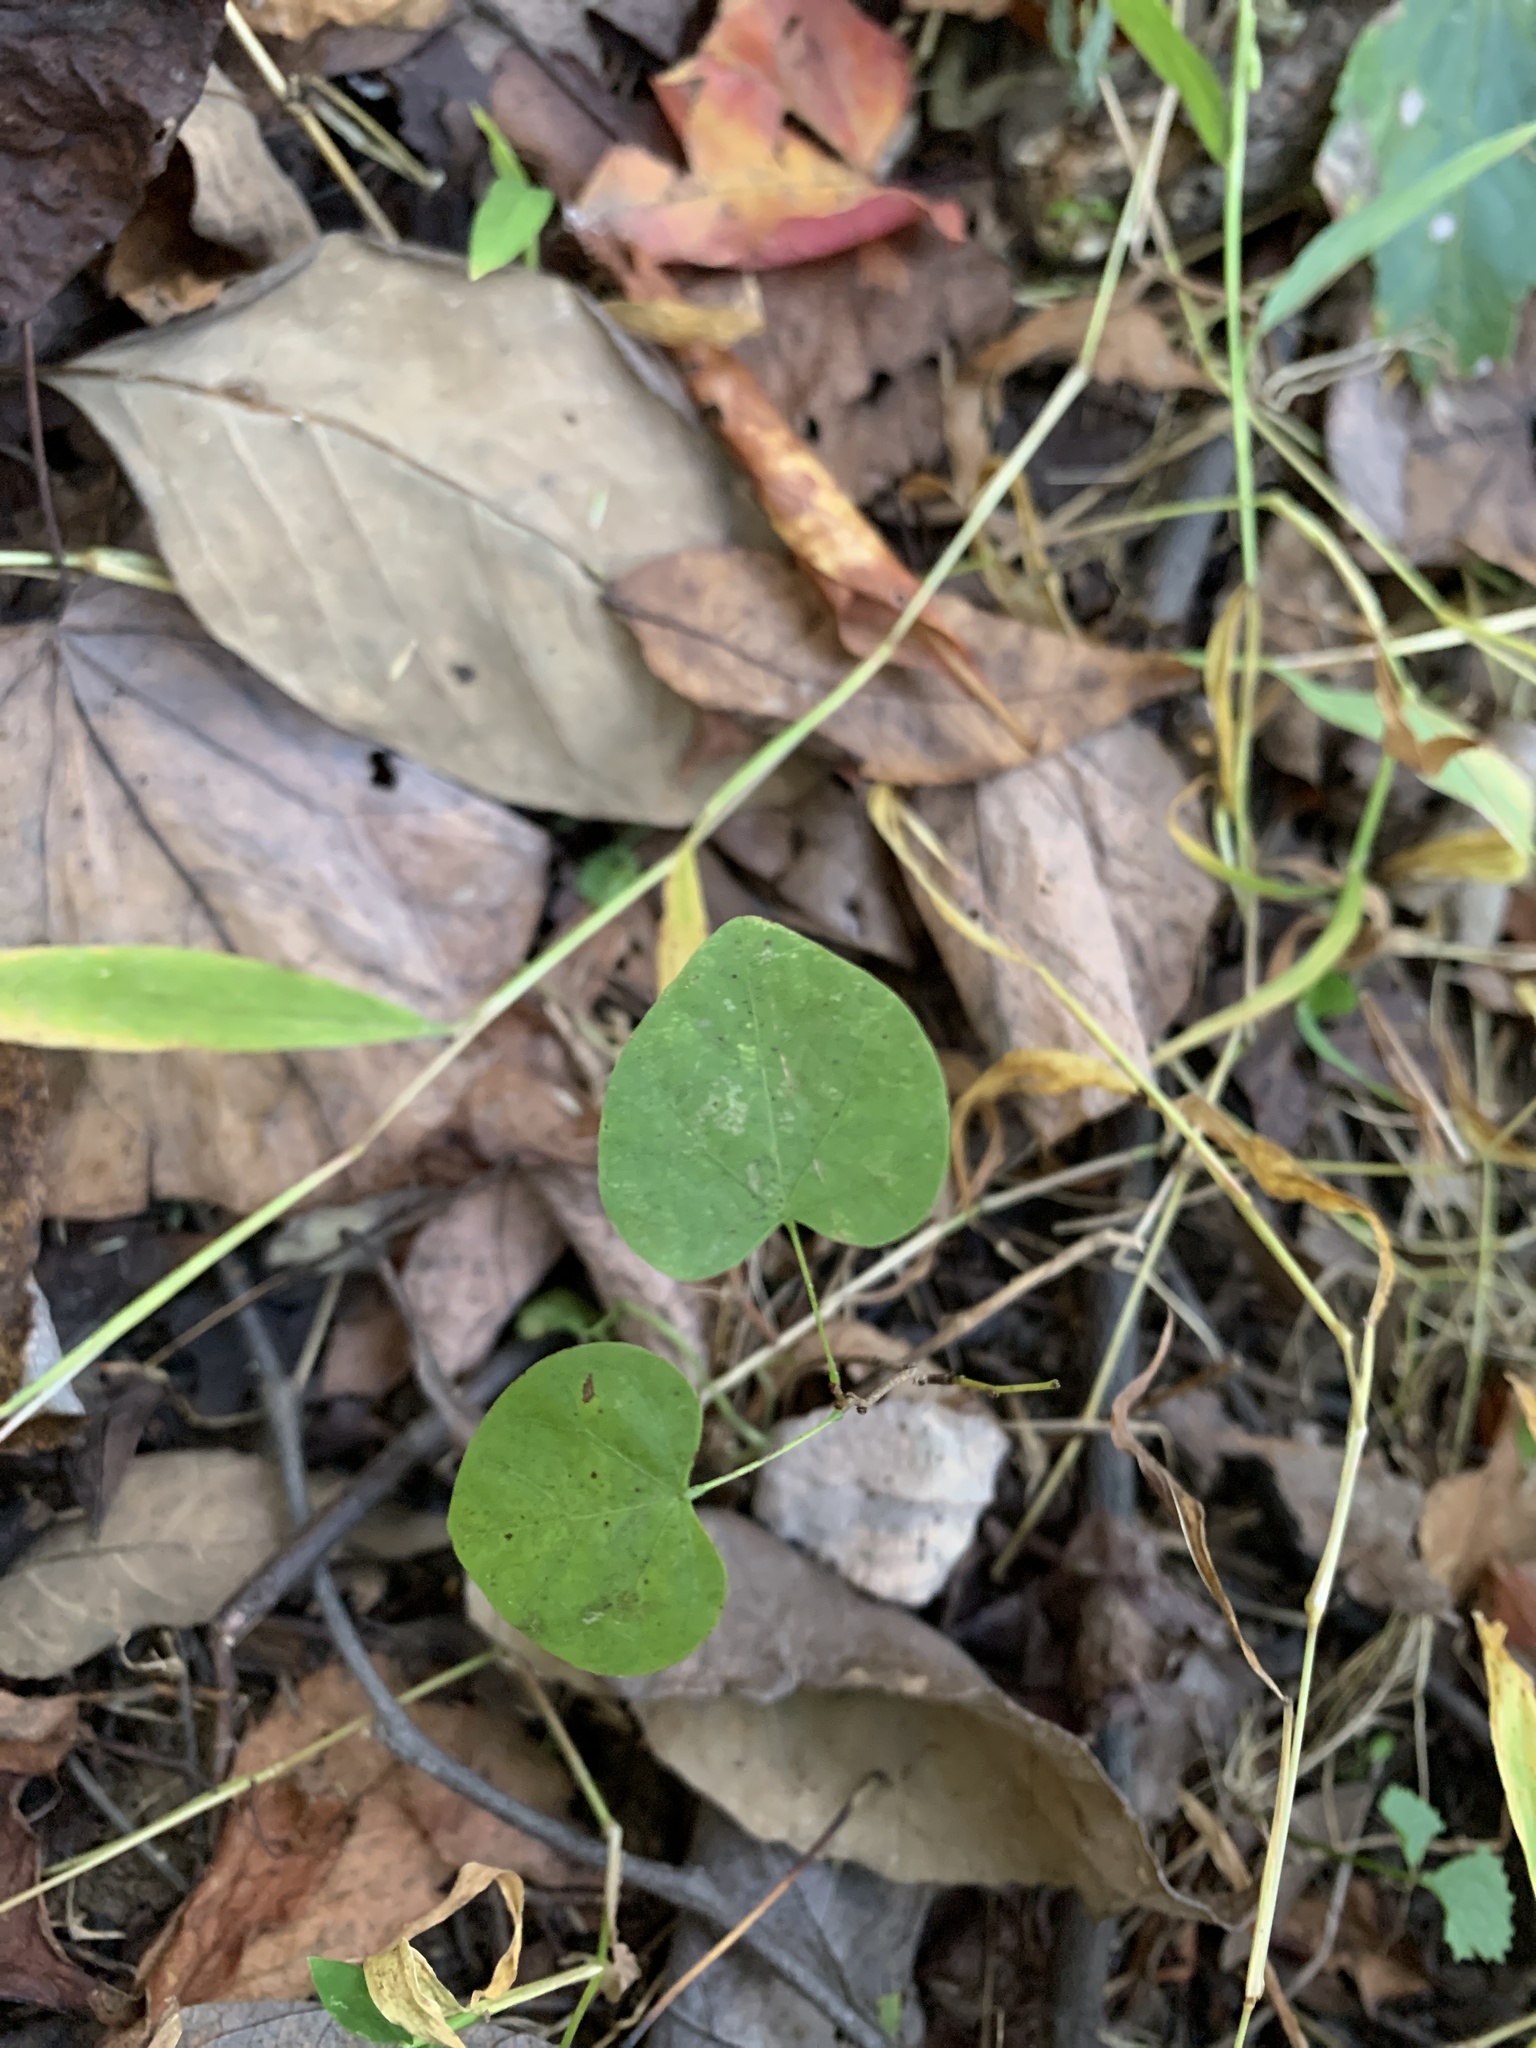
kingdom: Plantae
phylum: Tracheophyta
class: Magnoliopsida
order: Fabales
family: Fabaceae
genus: Cercis
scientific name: Cercis canadensis
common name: Eastern redbud
